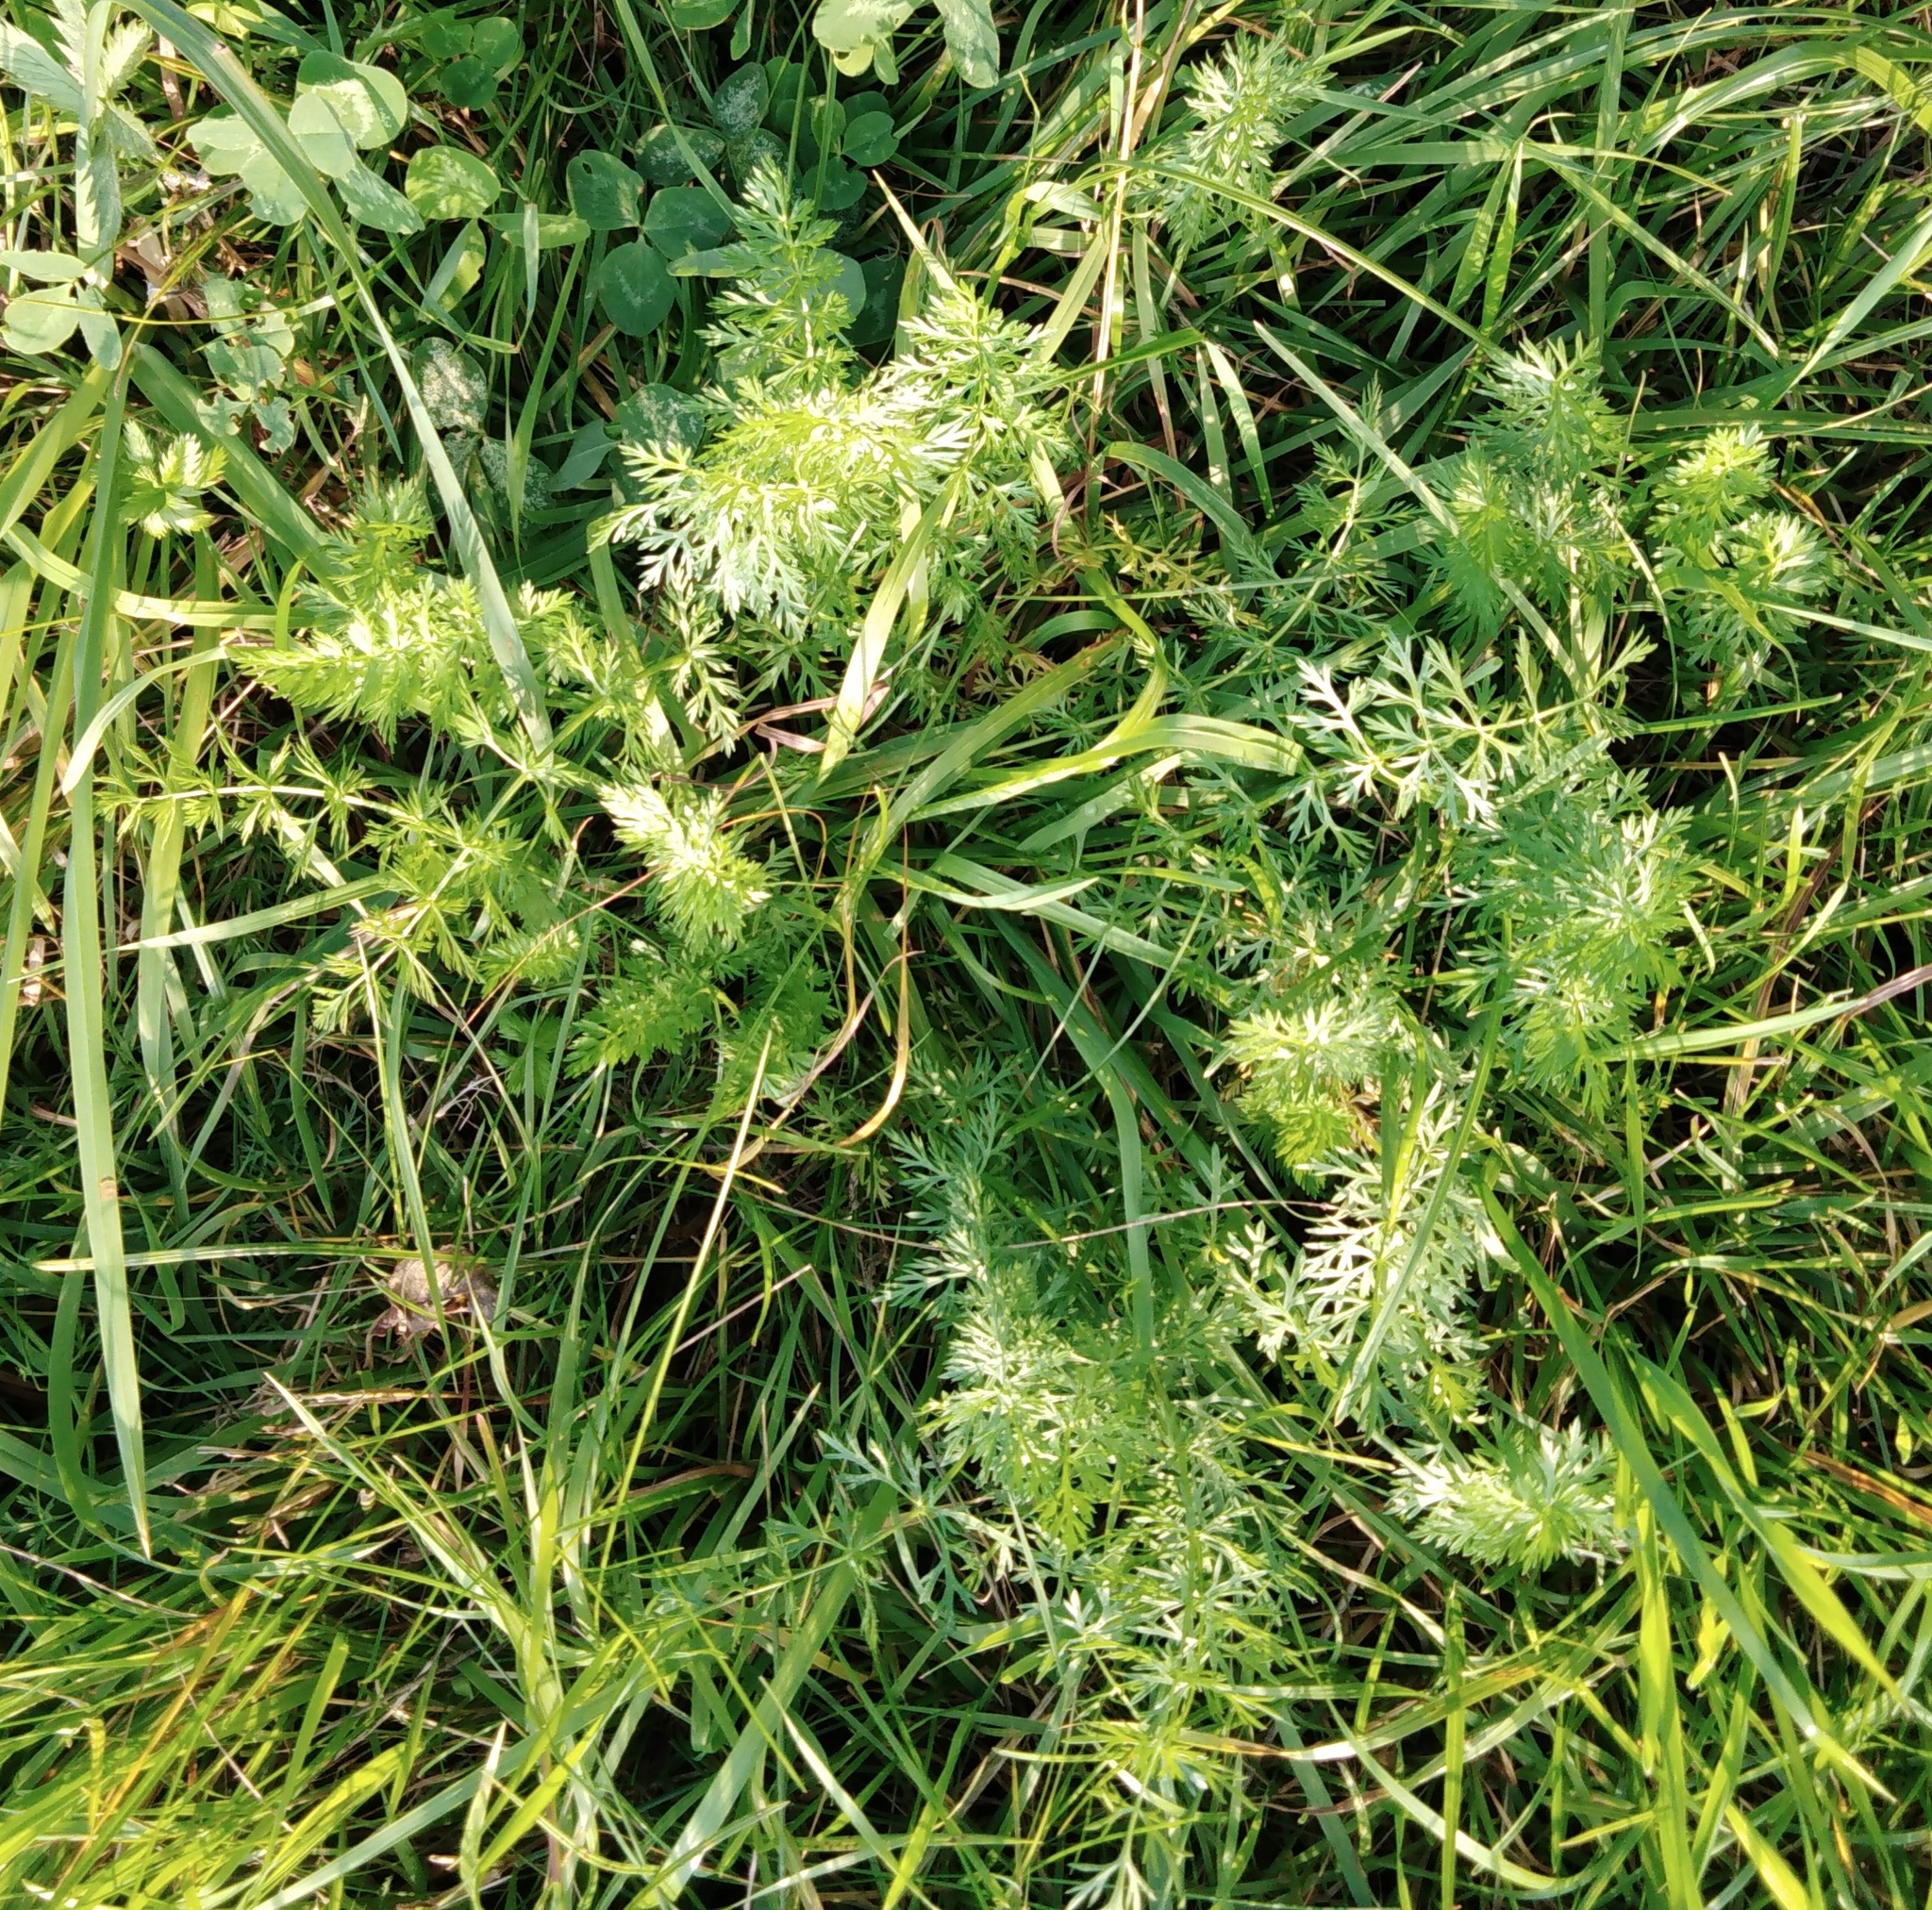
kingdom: Plantae
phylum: Tracheophyta
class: Magnoliopsida
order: Apiales
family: Apiaceae
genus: Carum
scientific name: Carum carvi
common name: Caraway
